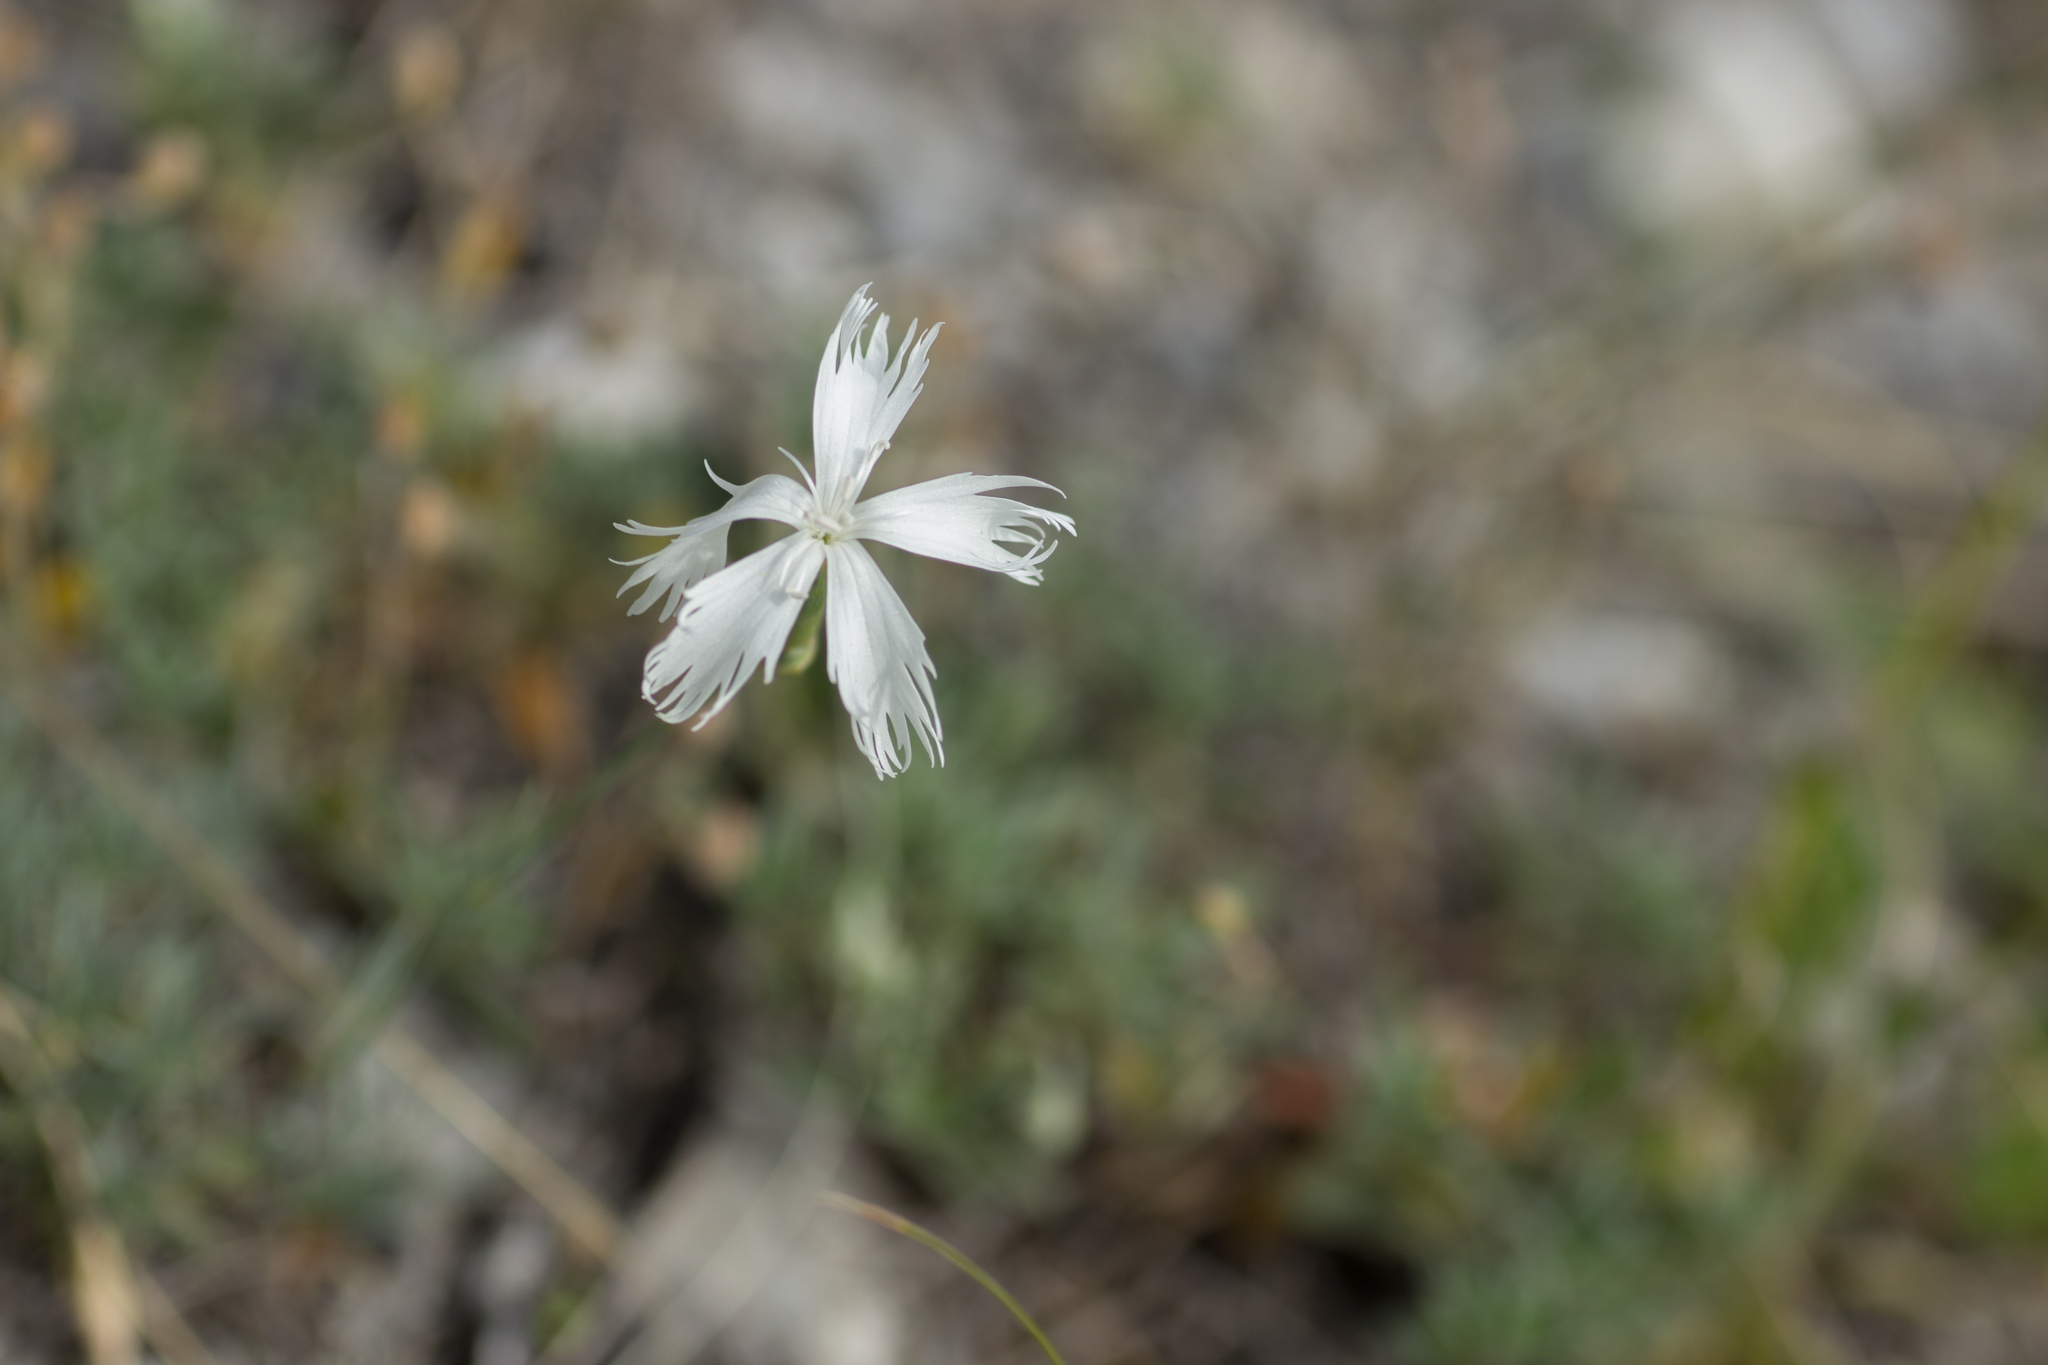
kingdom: Plantae
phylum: Tracheophyta
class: Magnoliopsida
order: Caryophyllales
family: Caryophyllaceae
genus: Dianthus
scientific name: Dianthus praecox
